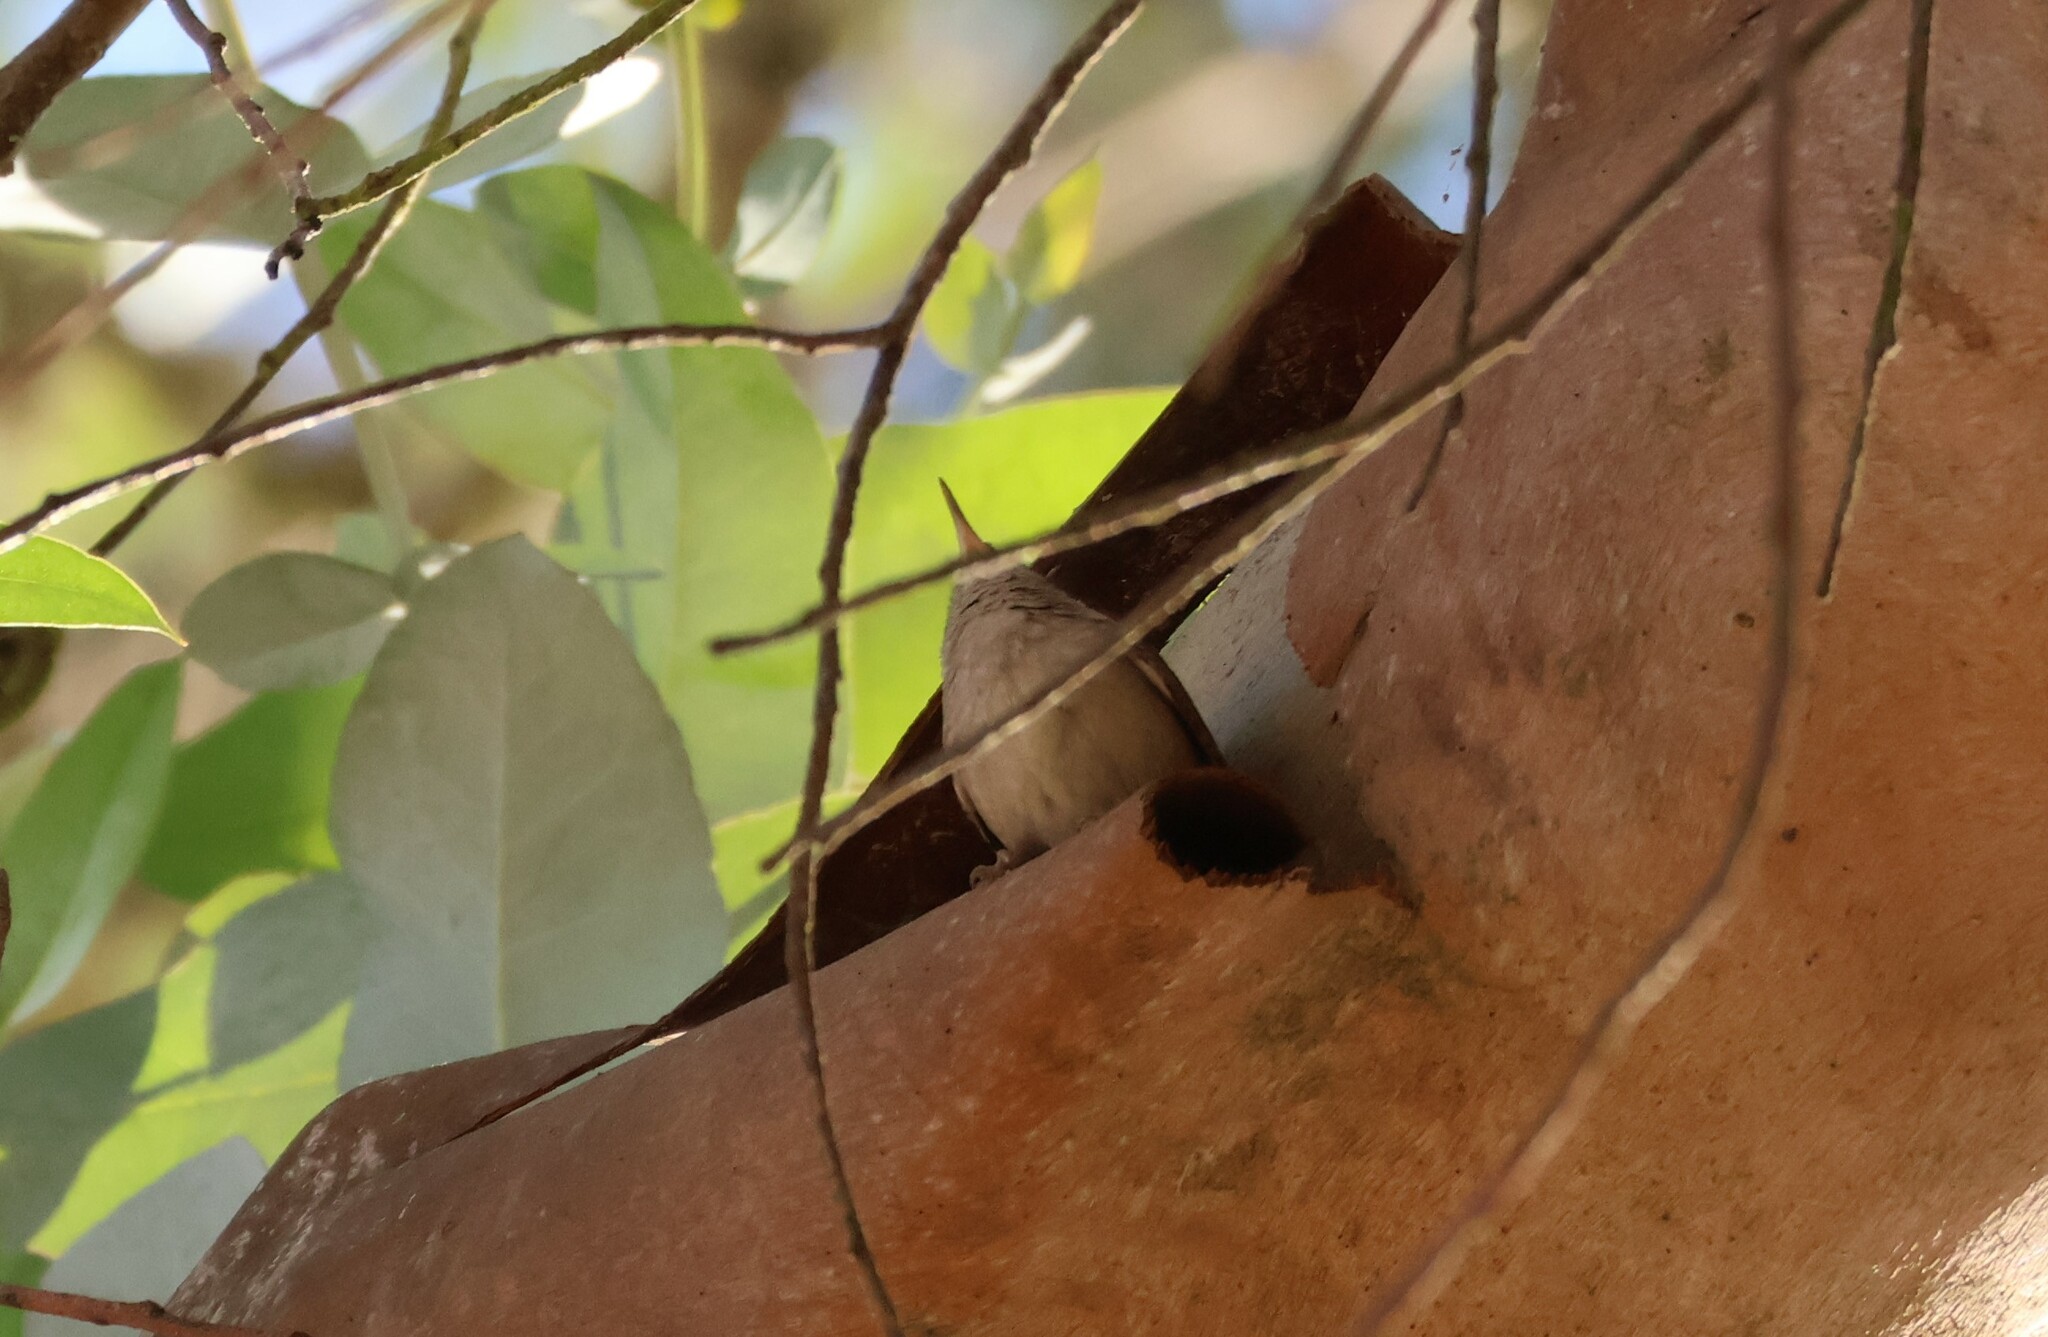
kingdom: Animalia
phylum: Chordata
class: Aves
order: Passeriformes
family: Troglodytidae
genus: Troglodytes
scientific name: Troglodytes aedon
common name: House wren
